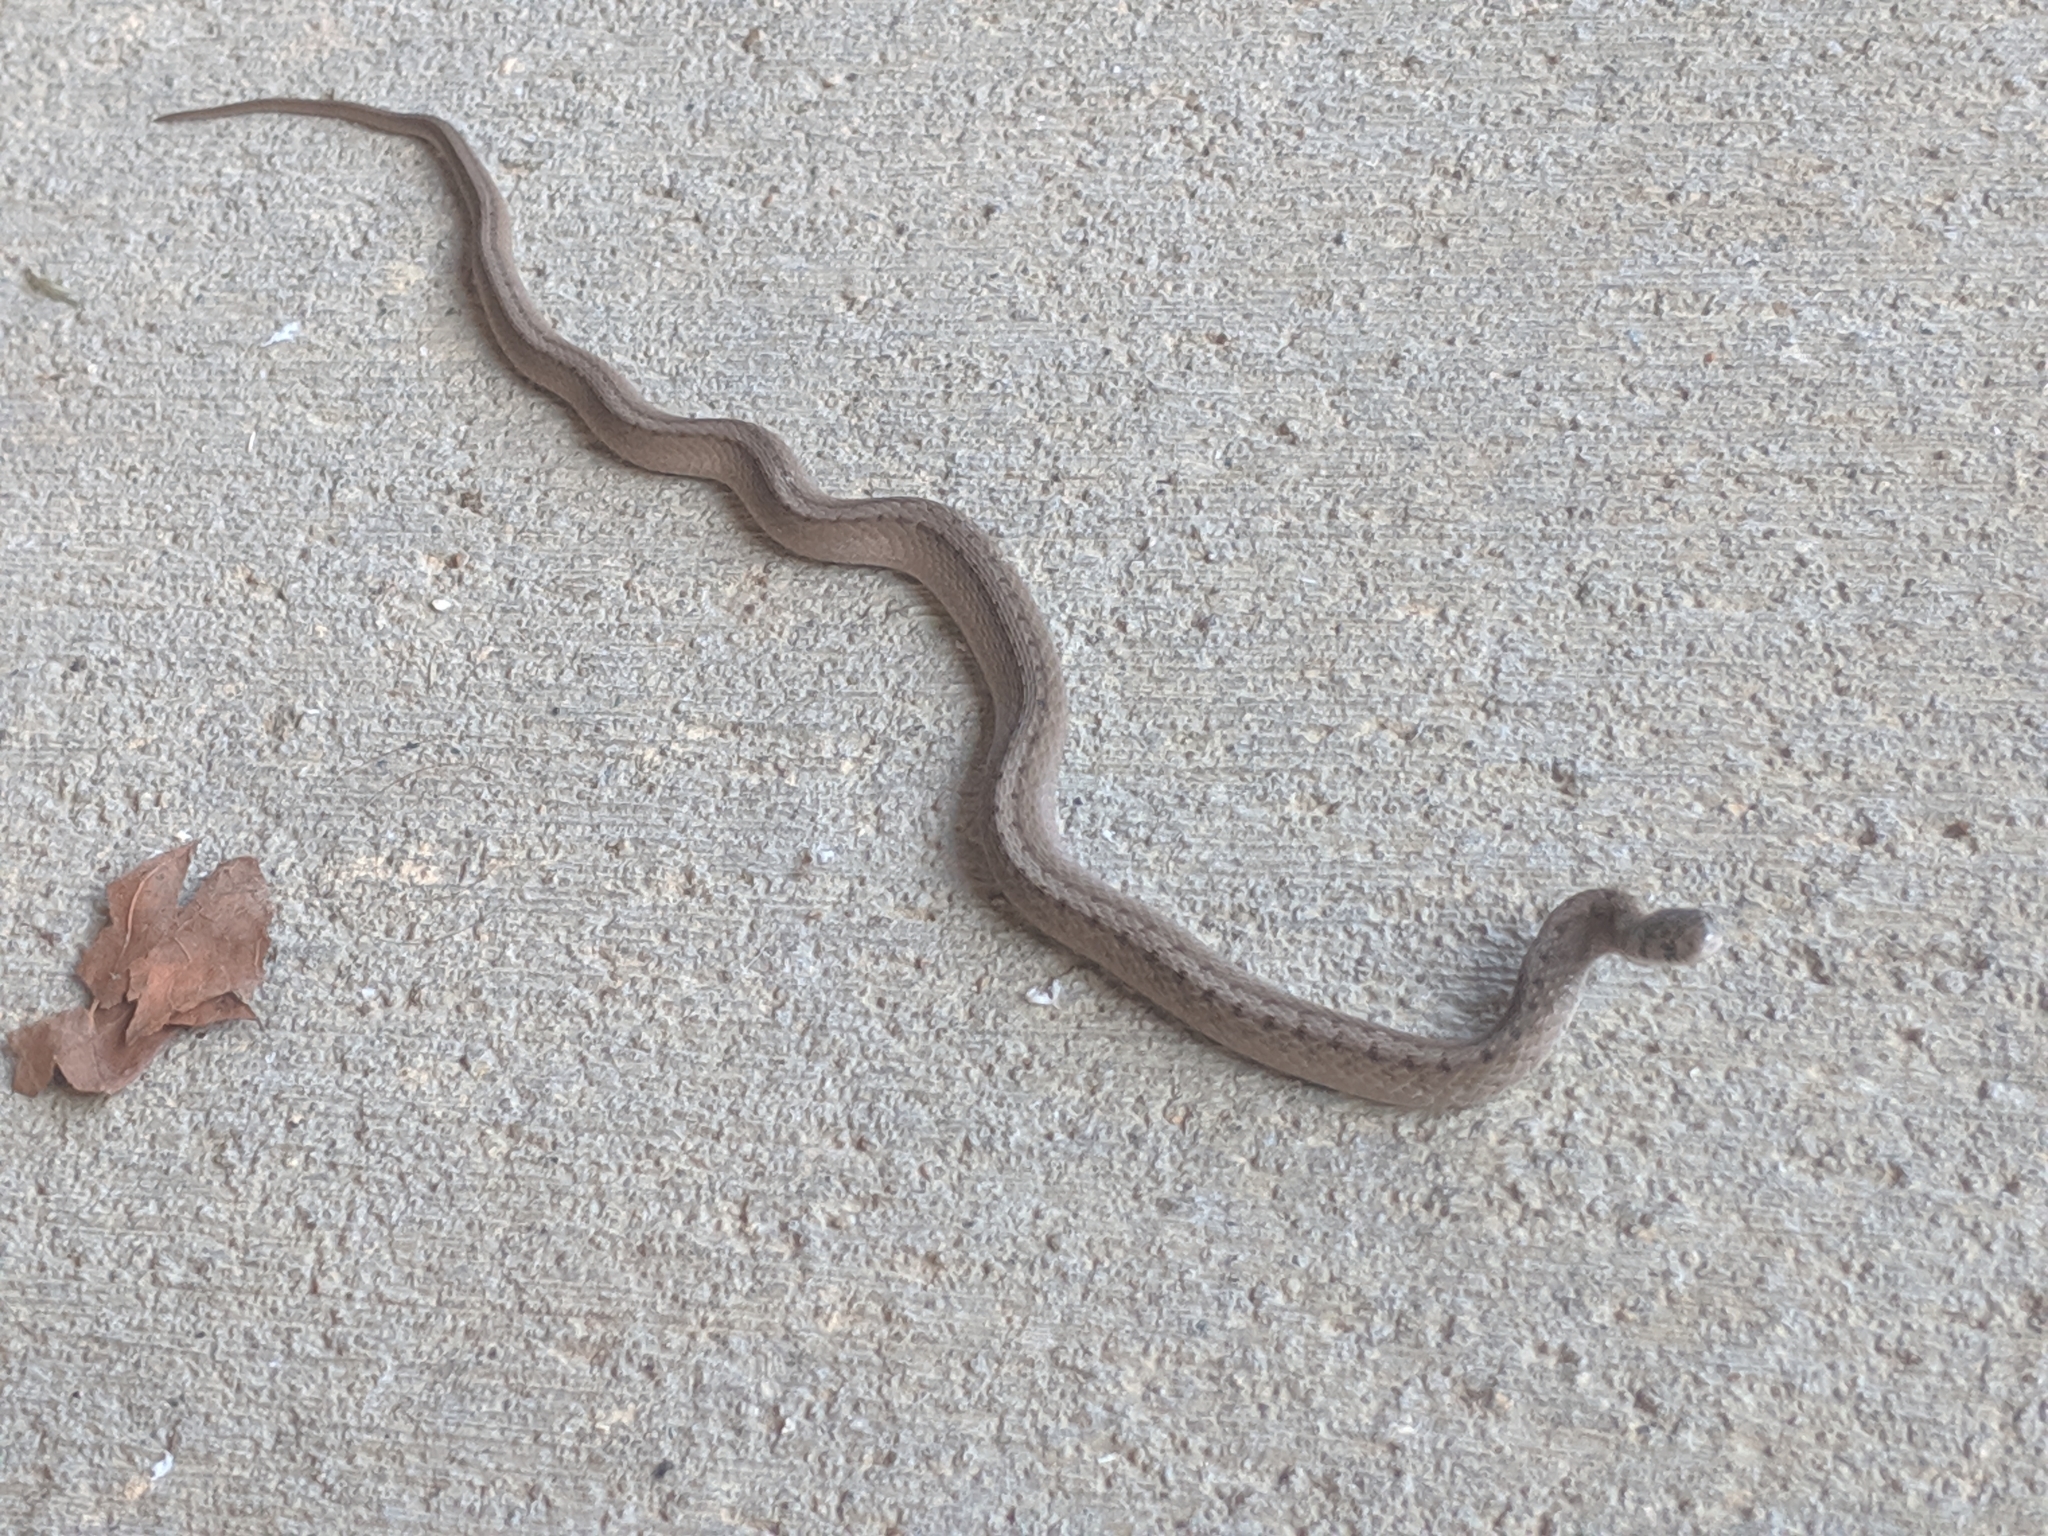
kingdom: Animalia
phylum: Chordata
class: Squamata
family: Colubridae
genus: Storeria
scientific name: Storeria dekayi
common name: (dekay’s) brown snake
